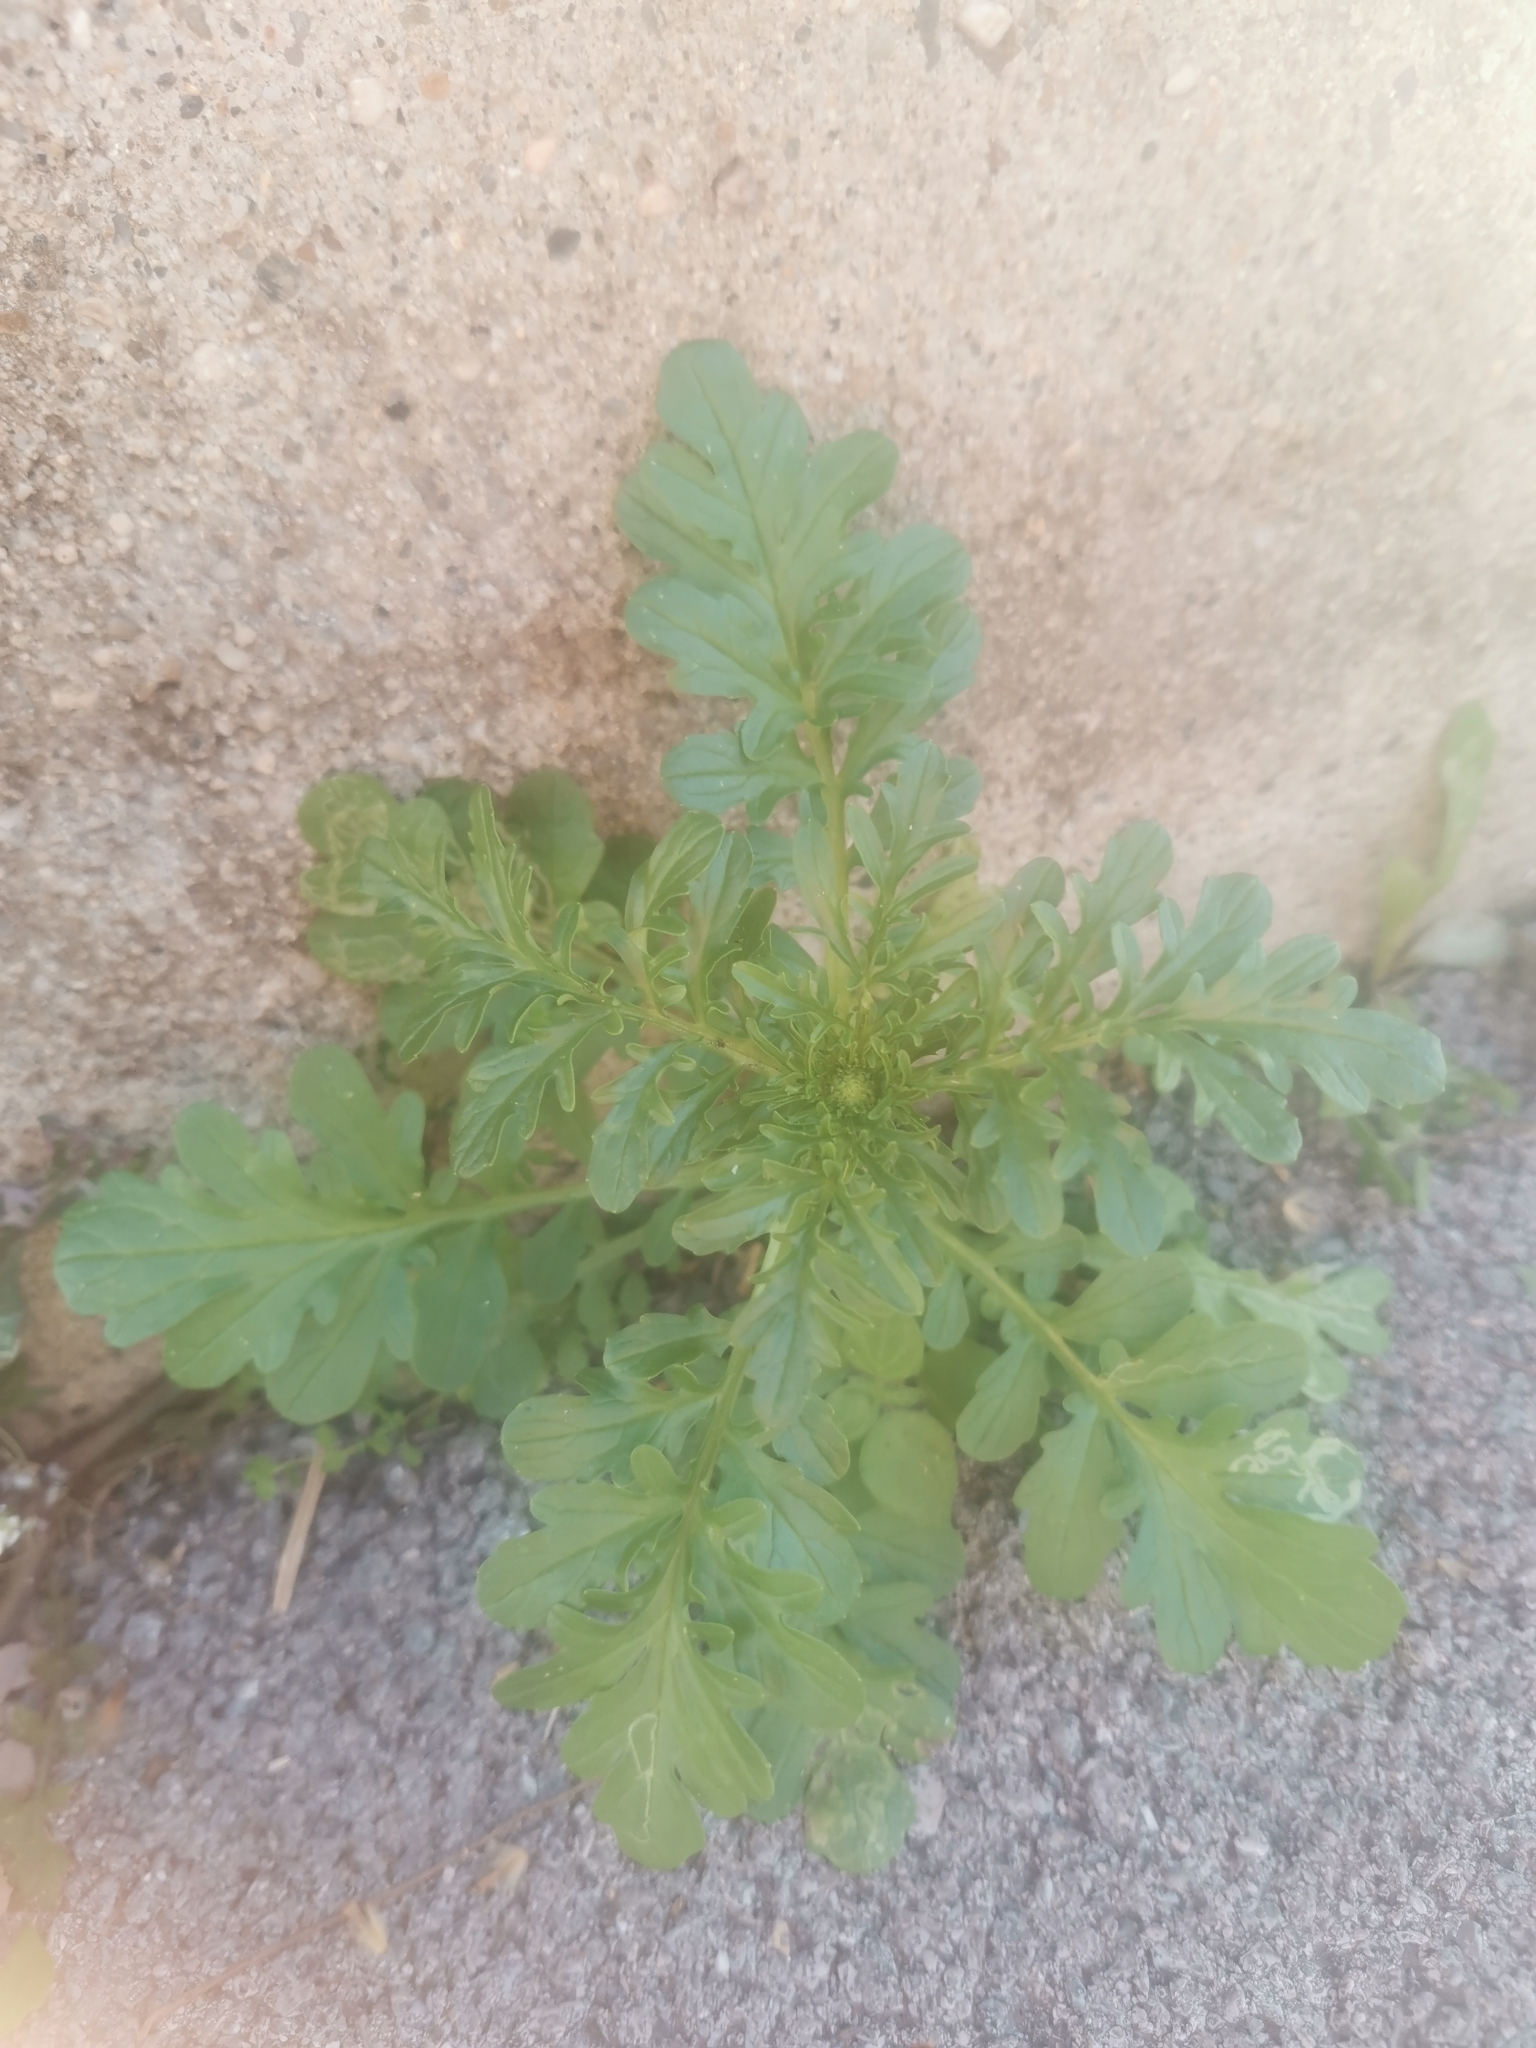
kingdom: Plantae
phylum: Tracheophyta
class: Magnoliopsida
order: Dipsacales
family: Caprifoliaceae
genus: Centranthus
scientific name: Centranthus calcitrapae
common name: Annual valerian
